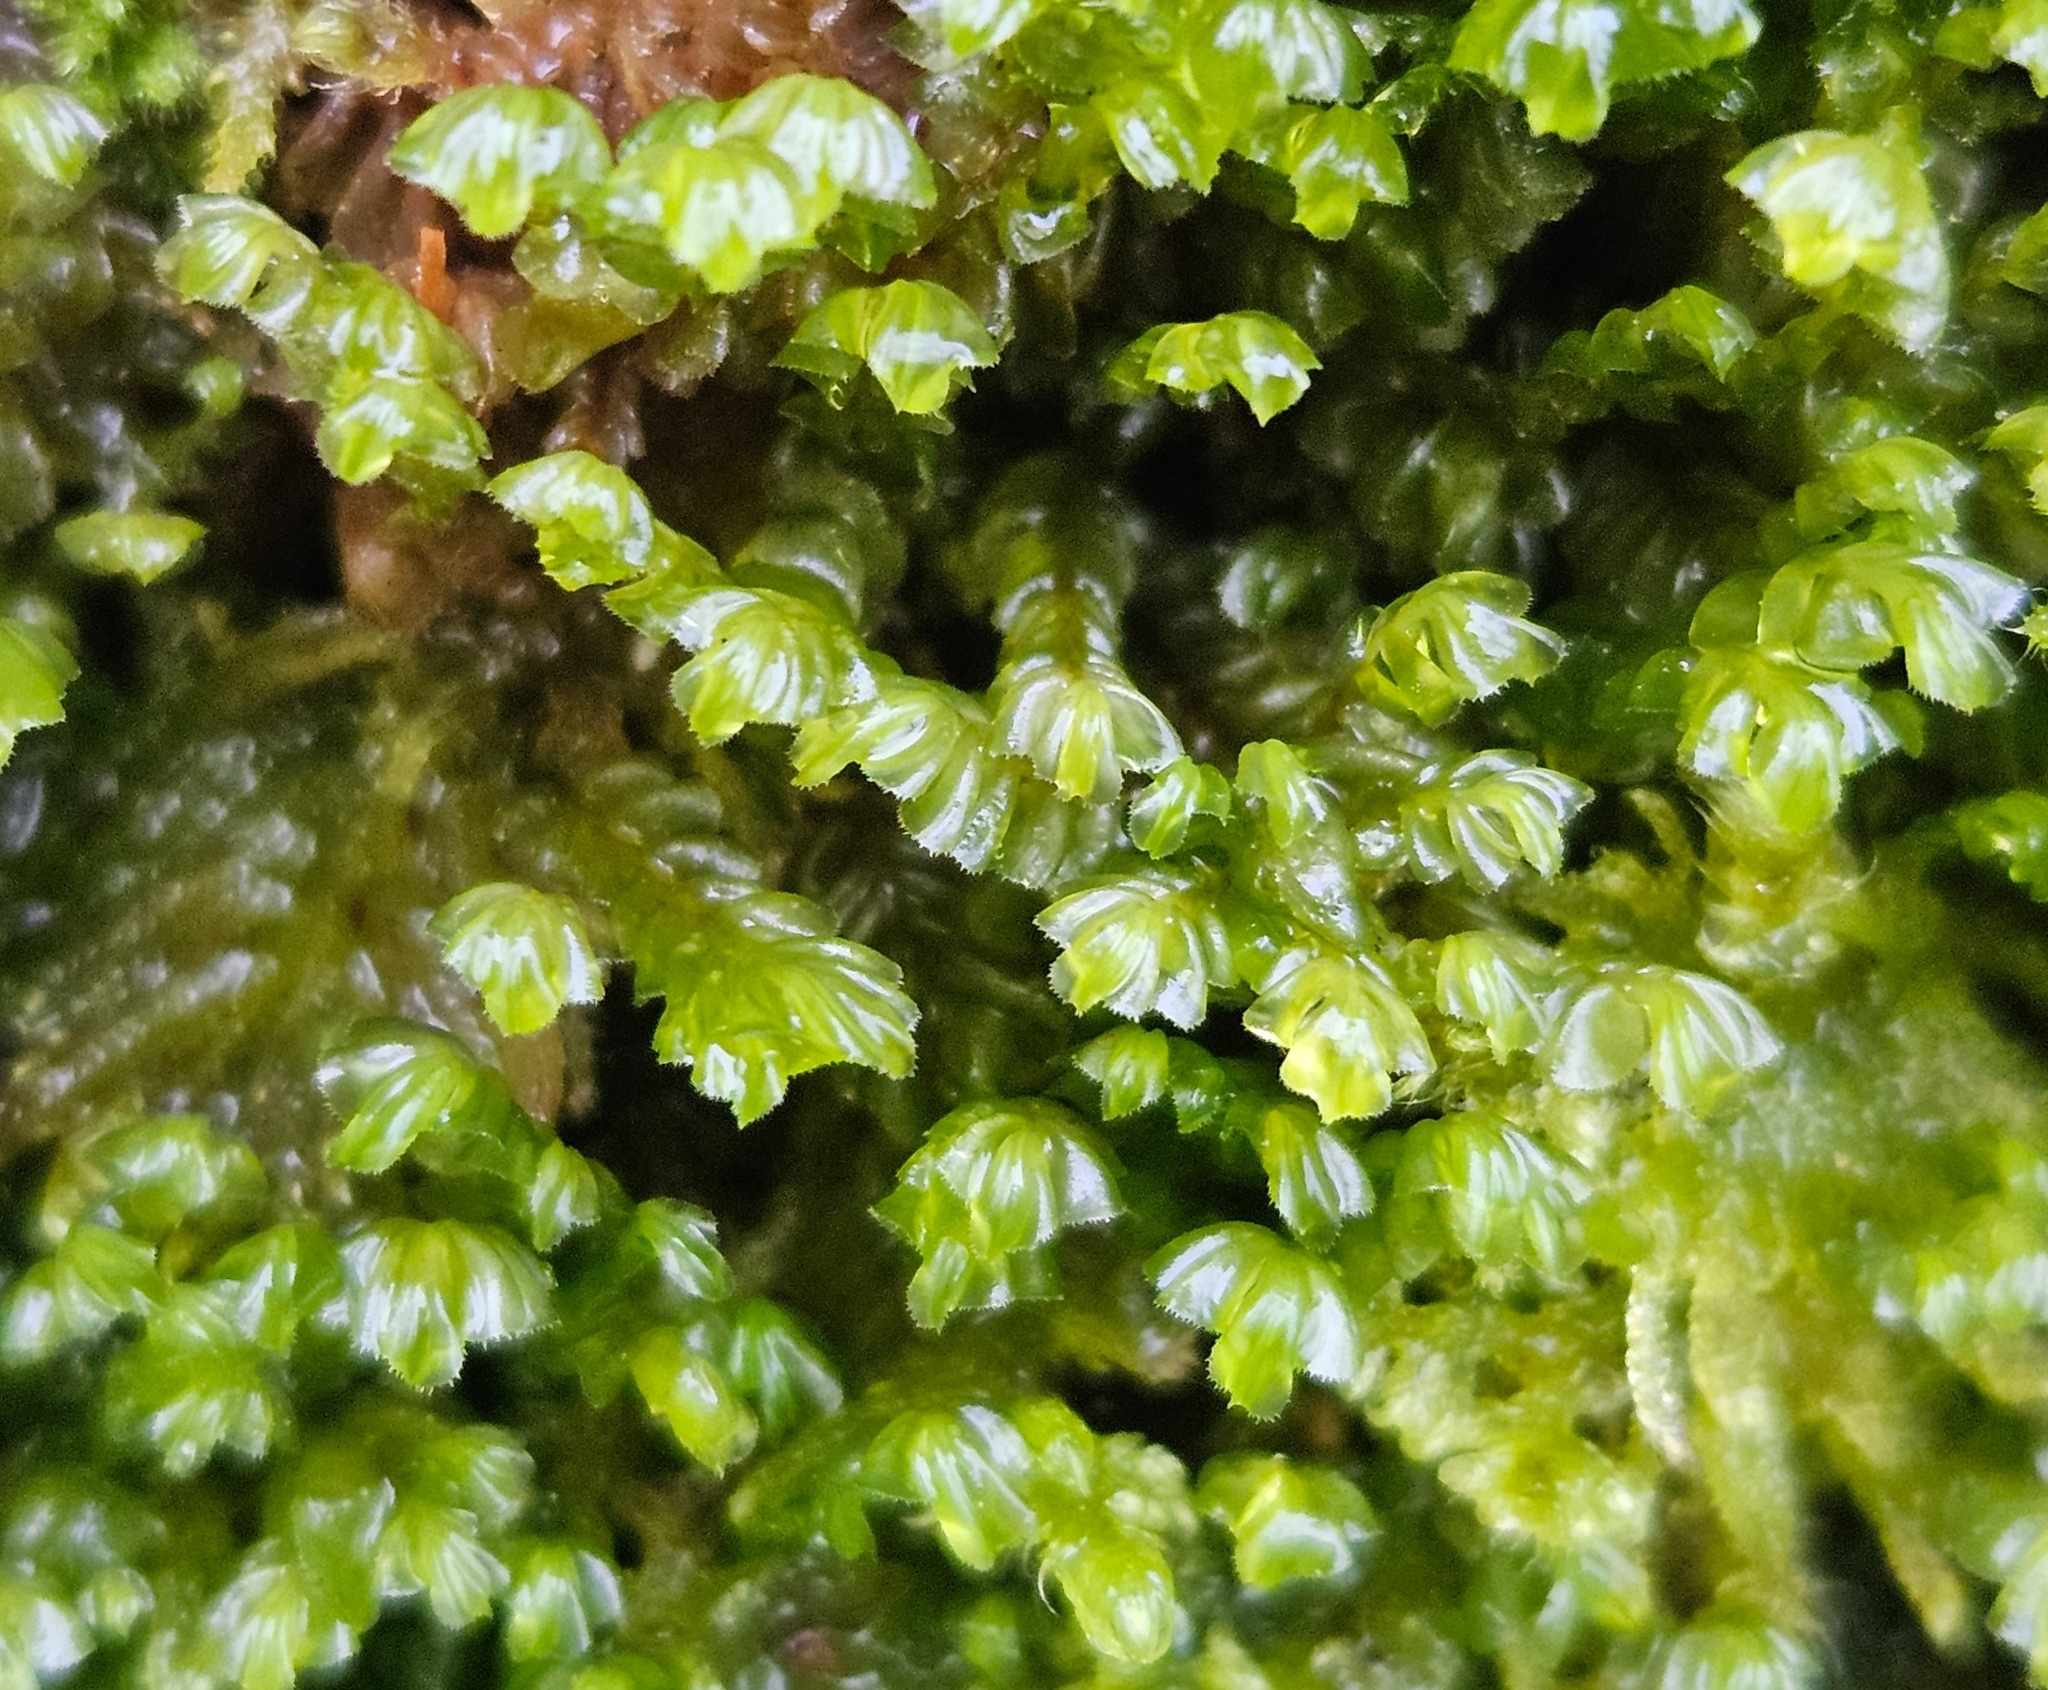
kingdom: Plantae
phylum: Marchantiophyta
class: Jungermanniopsida
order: Jungermanniales
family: Plagiochilaceae
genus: Plagiochila
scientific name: Plagiochila porelloides
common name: Lesser featherwort
